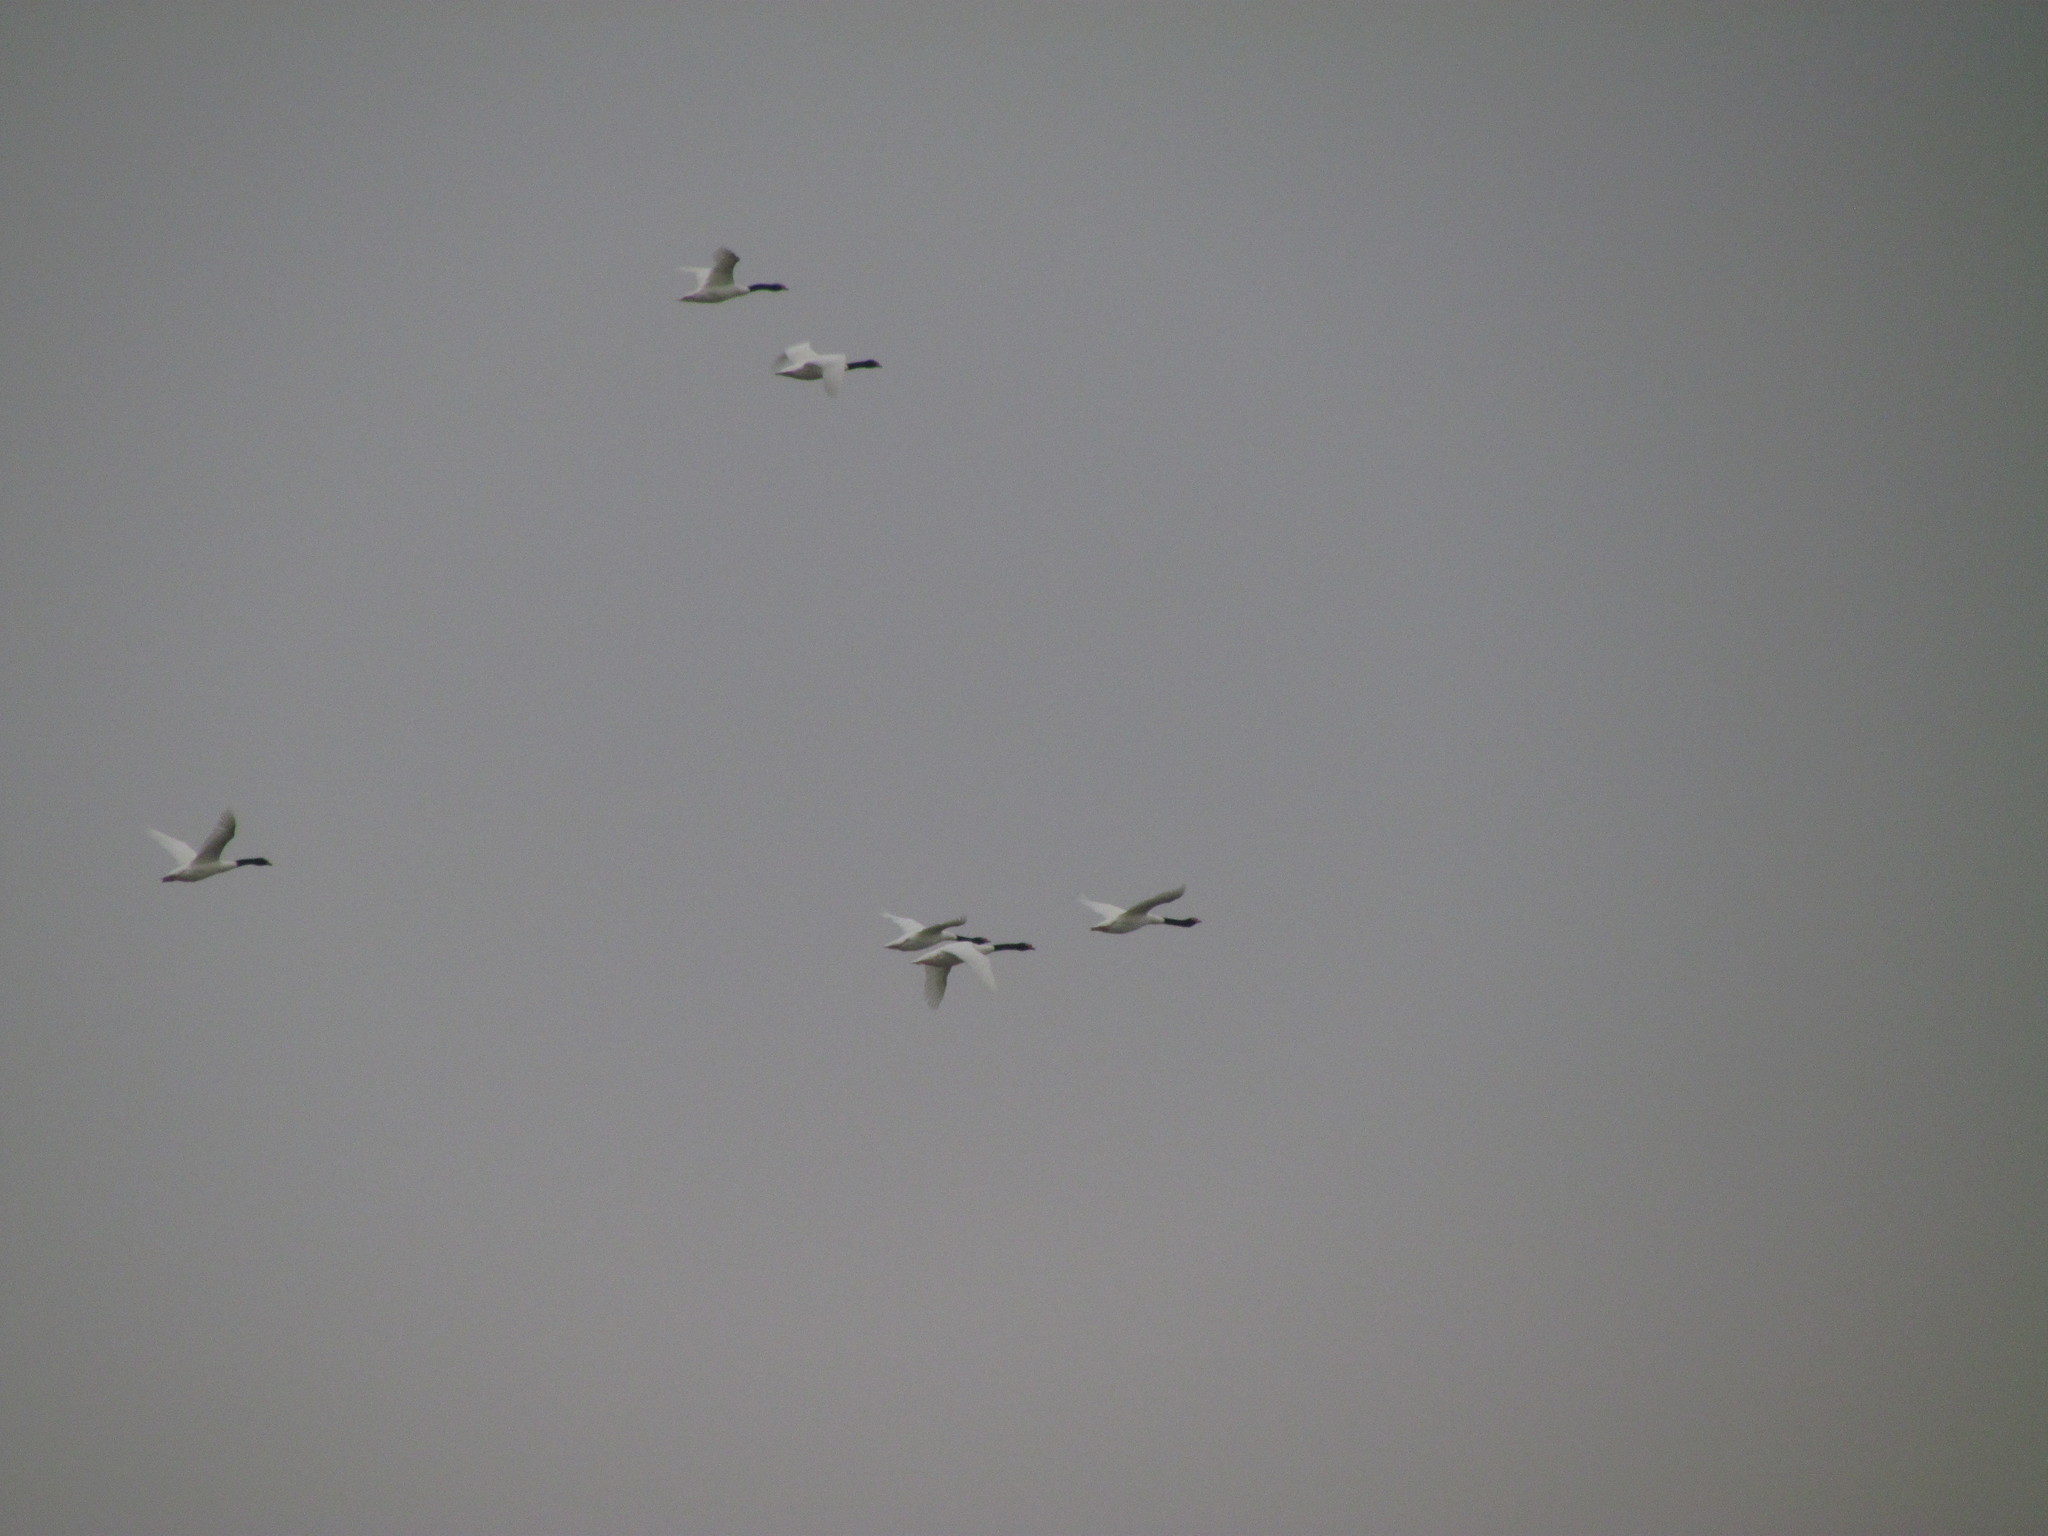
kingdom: Animalia
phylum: Chordata
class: Aves
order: Anseriformes
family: Anatidae
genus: Cygnus
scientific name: Cygnus melancoryphus
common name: Black-necked swan
